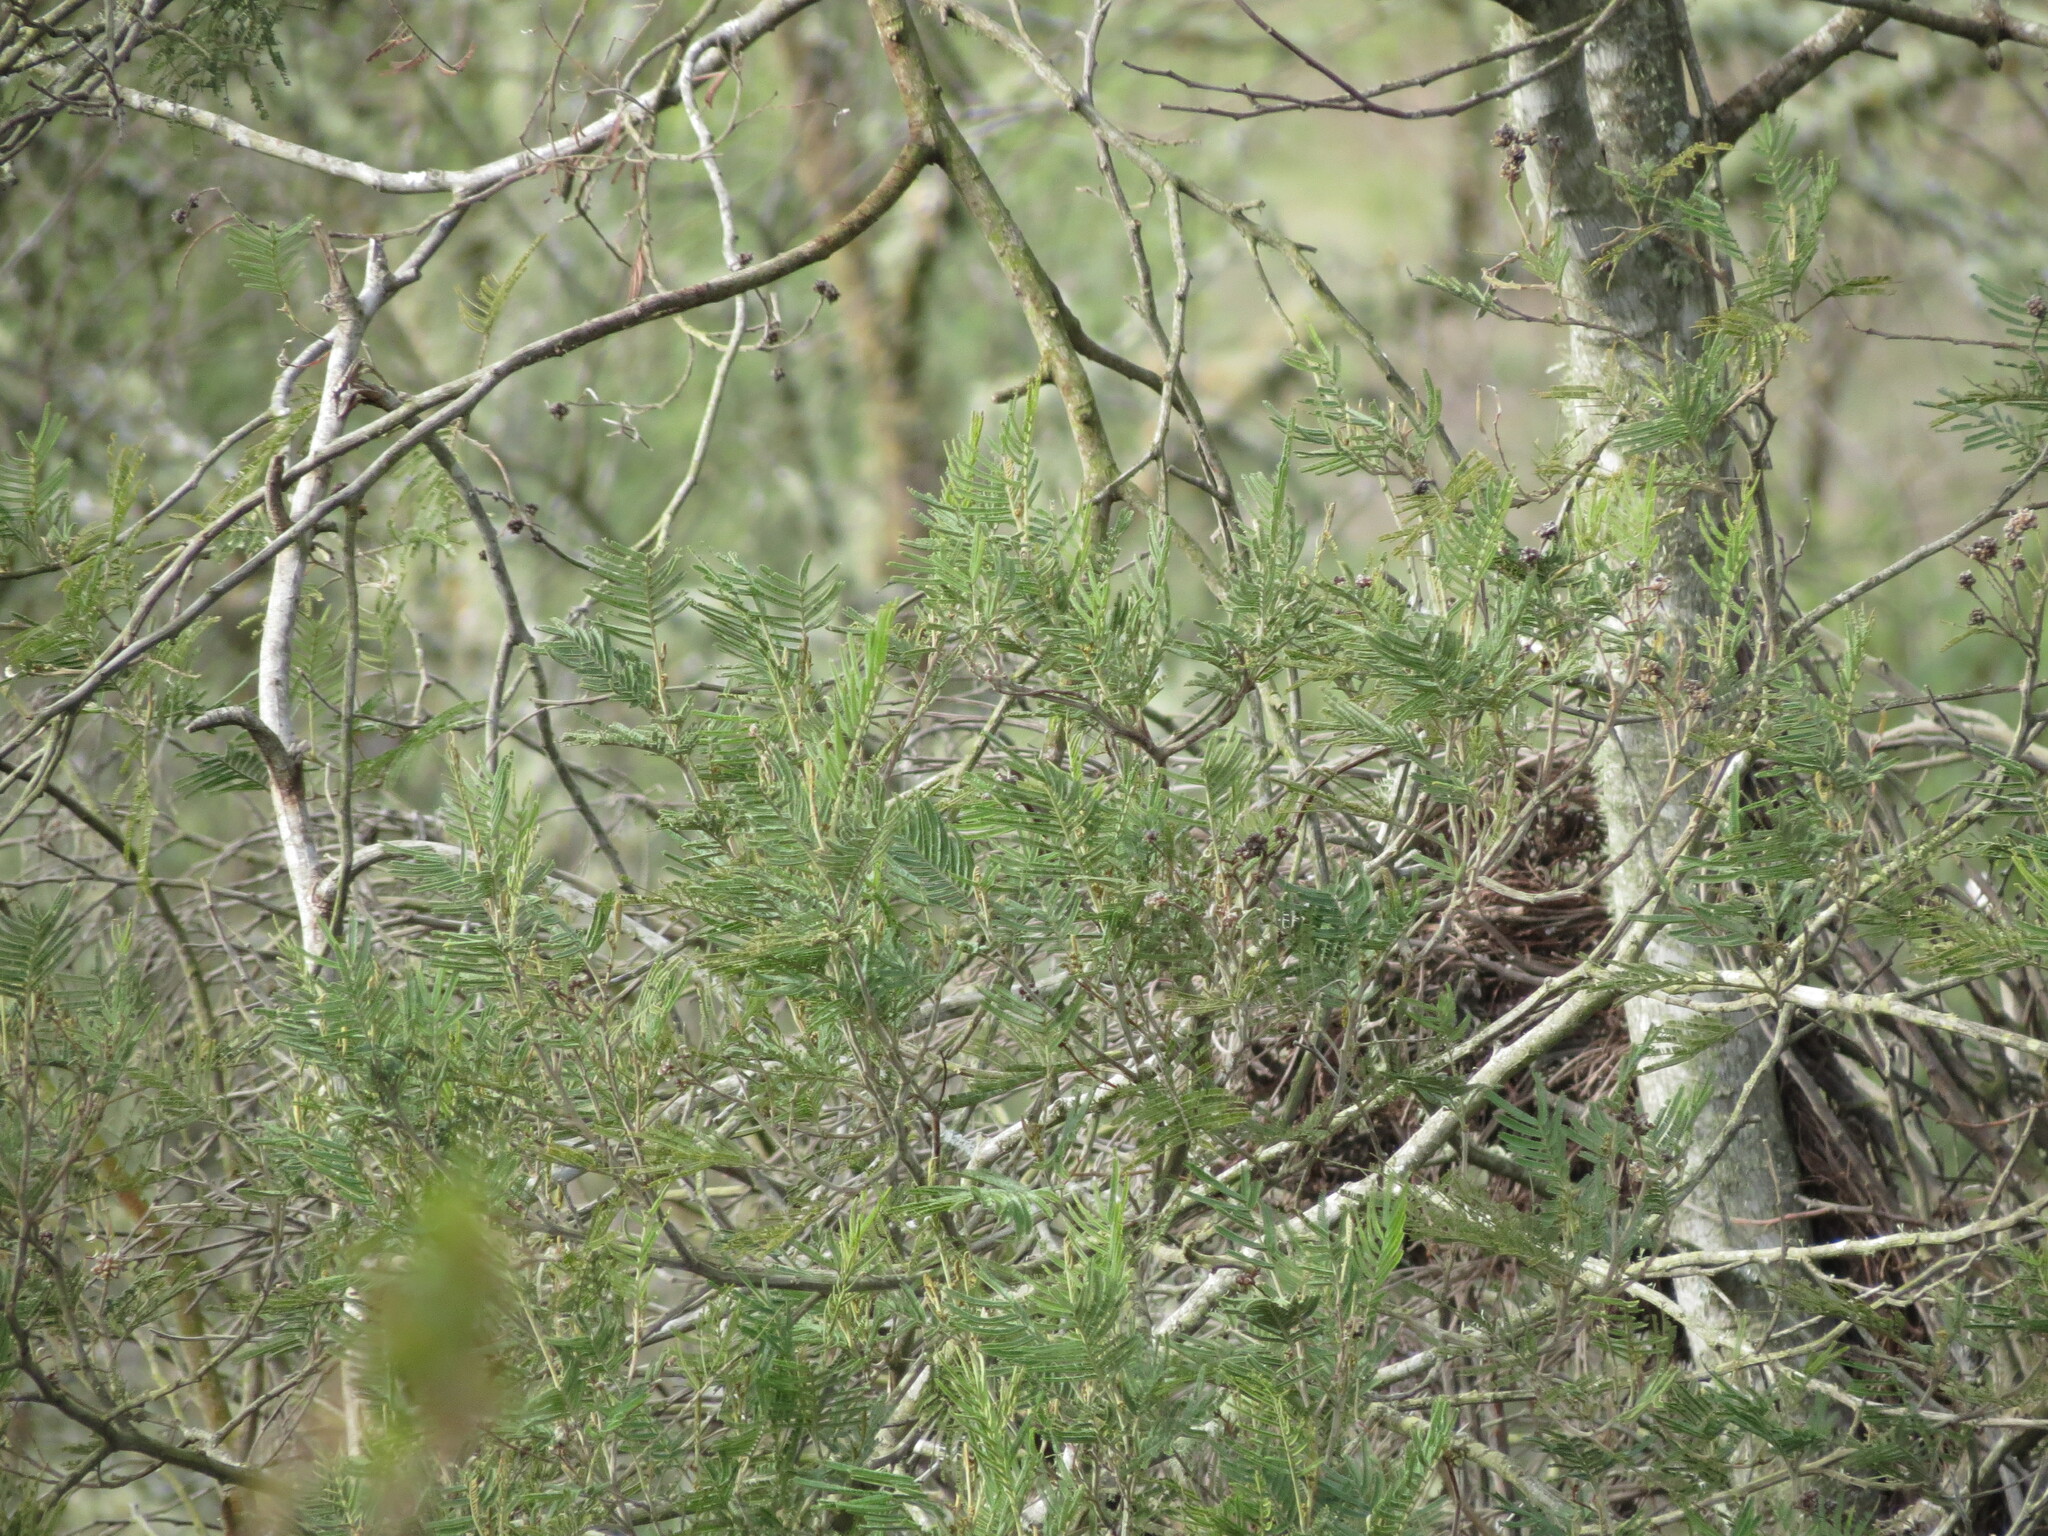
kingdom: Plantae
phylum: Tracheophyta
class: Magnoliopsida
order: Fabales
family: Fabaceae
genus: Acacia
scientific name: Acacia mearnsii
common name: Black wattle
